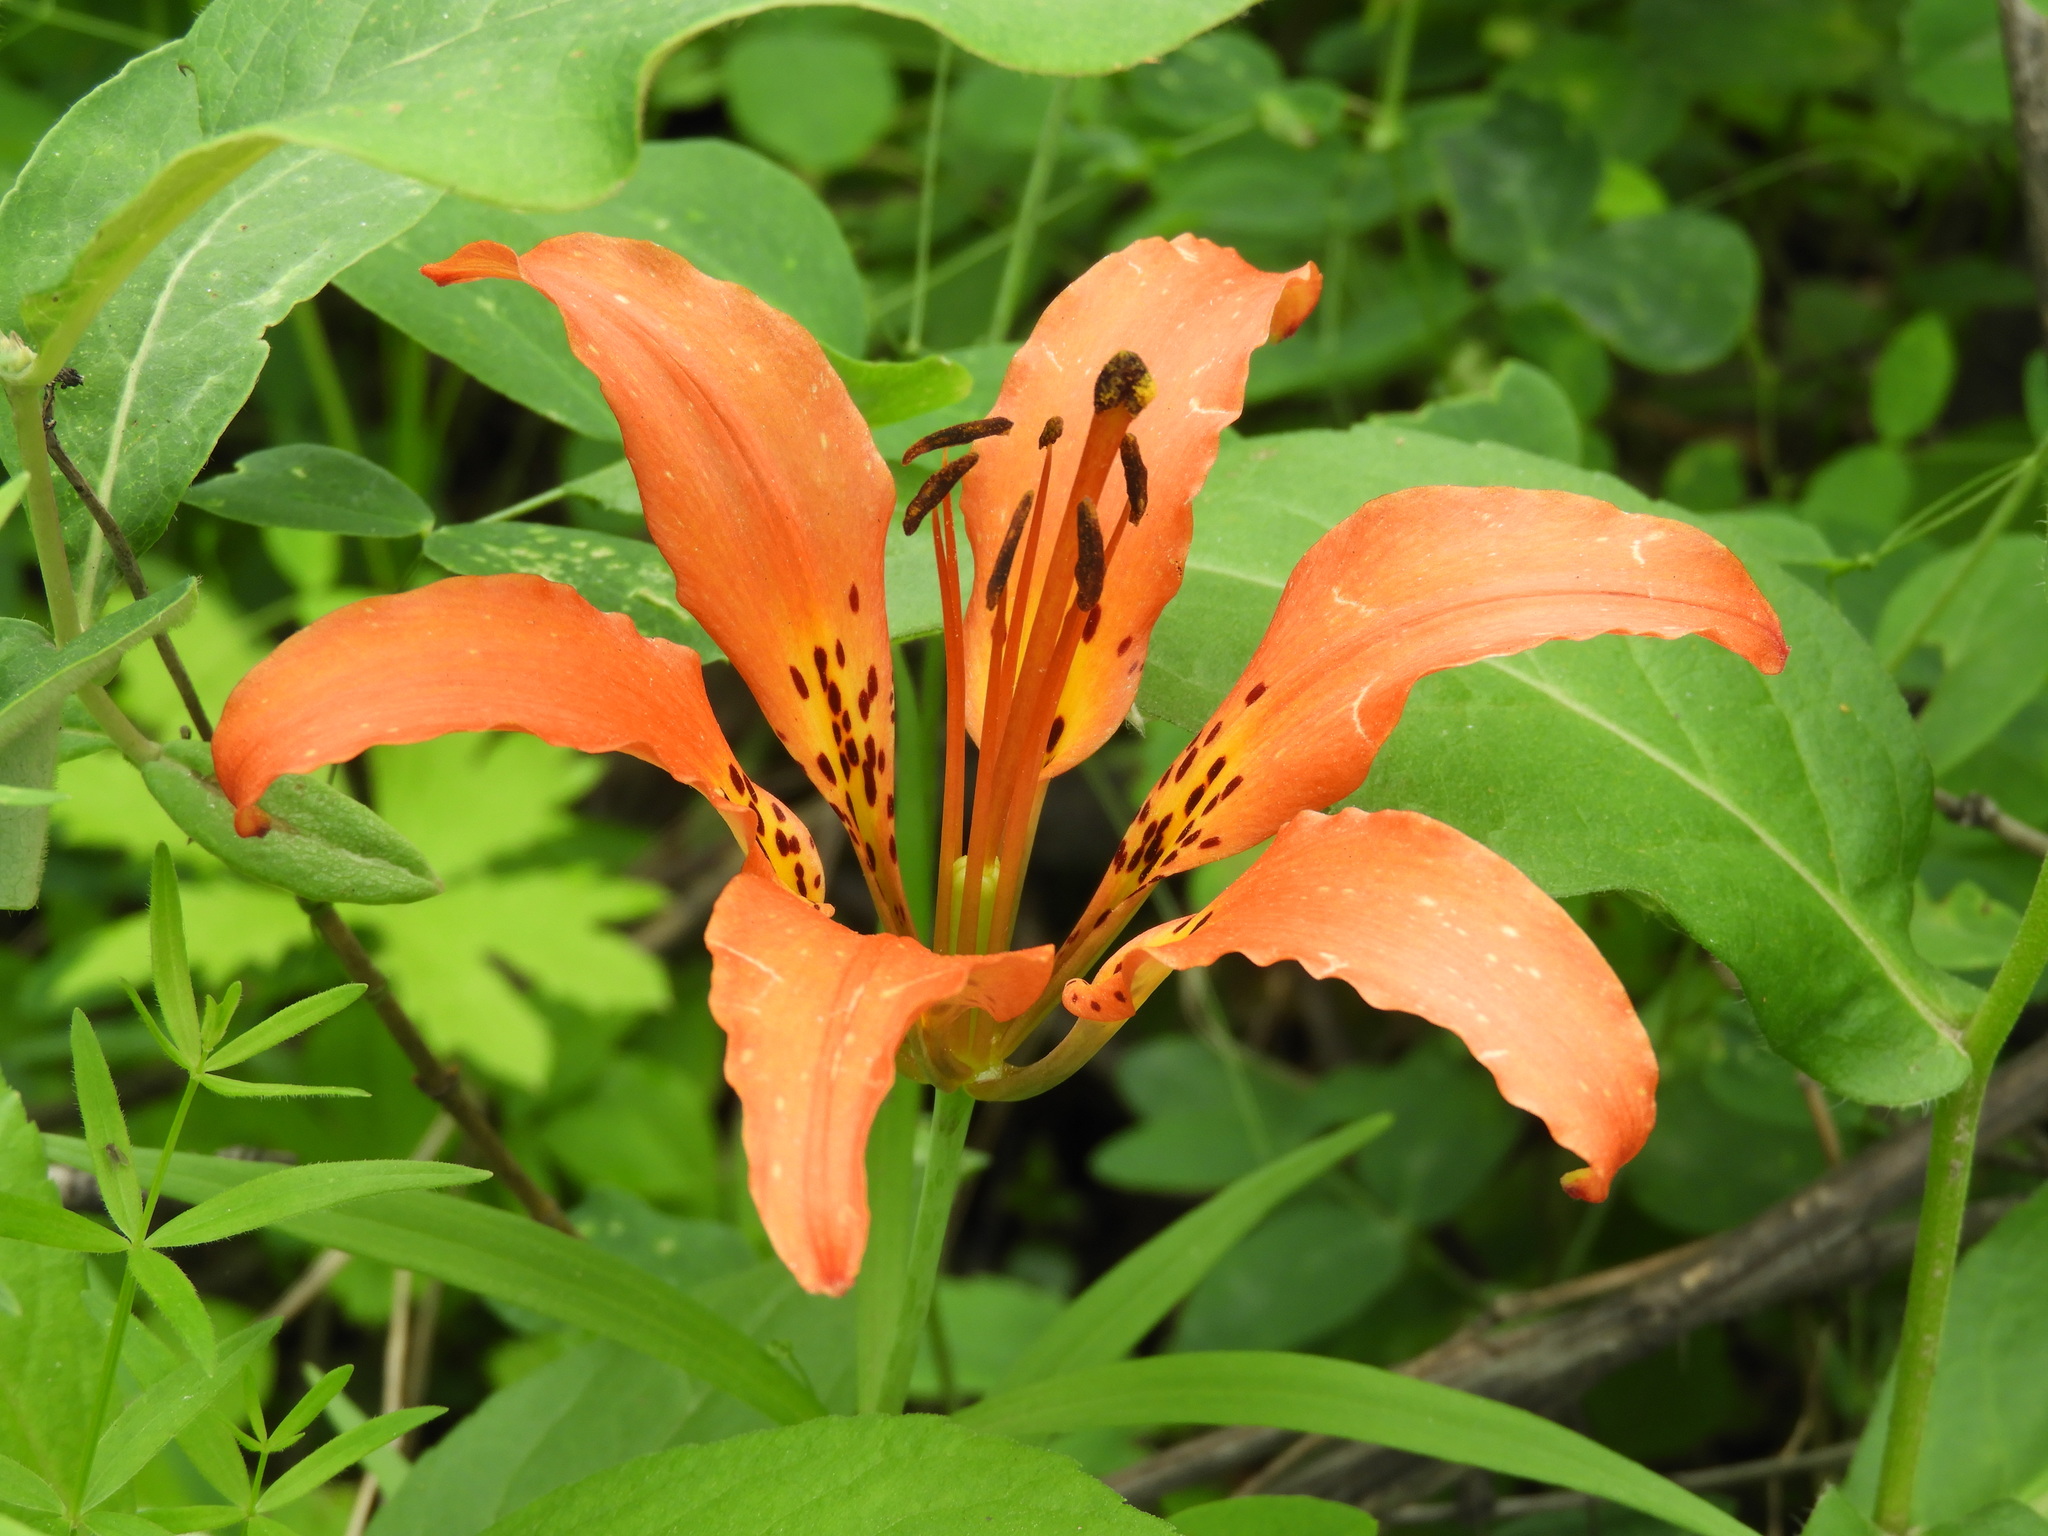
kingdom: Plantae
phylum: Tracheophyta
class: Liliopsida
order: Liliales
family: Liliaceae
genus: Lilium
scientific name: Lilium philadelphicum
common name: Red lily
